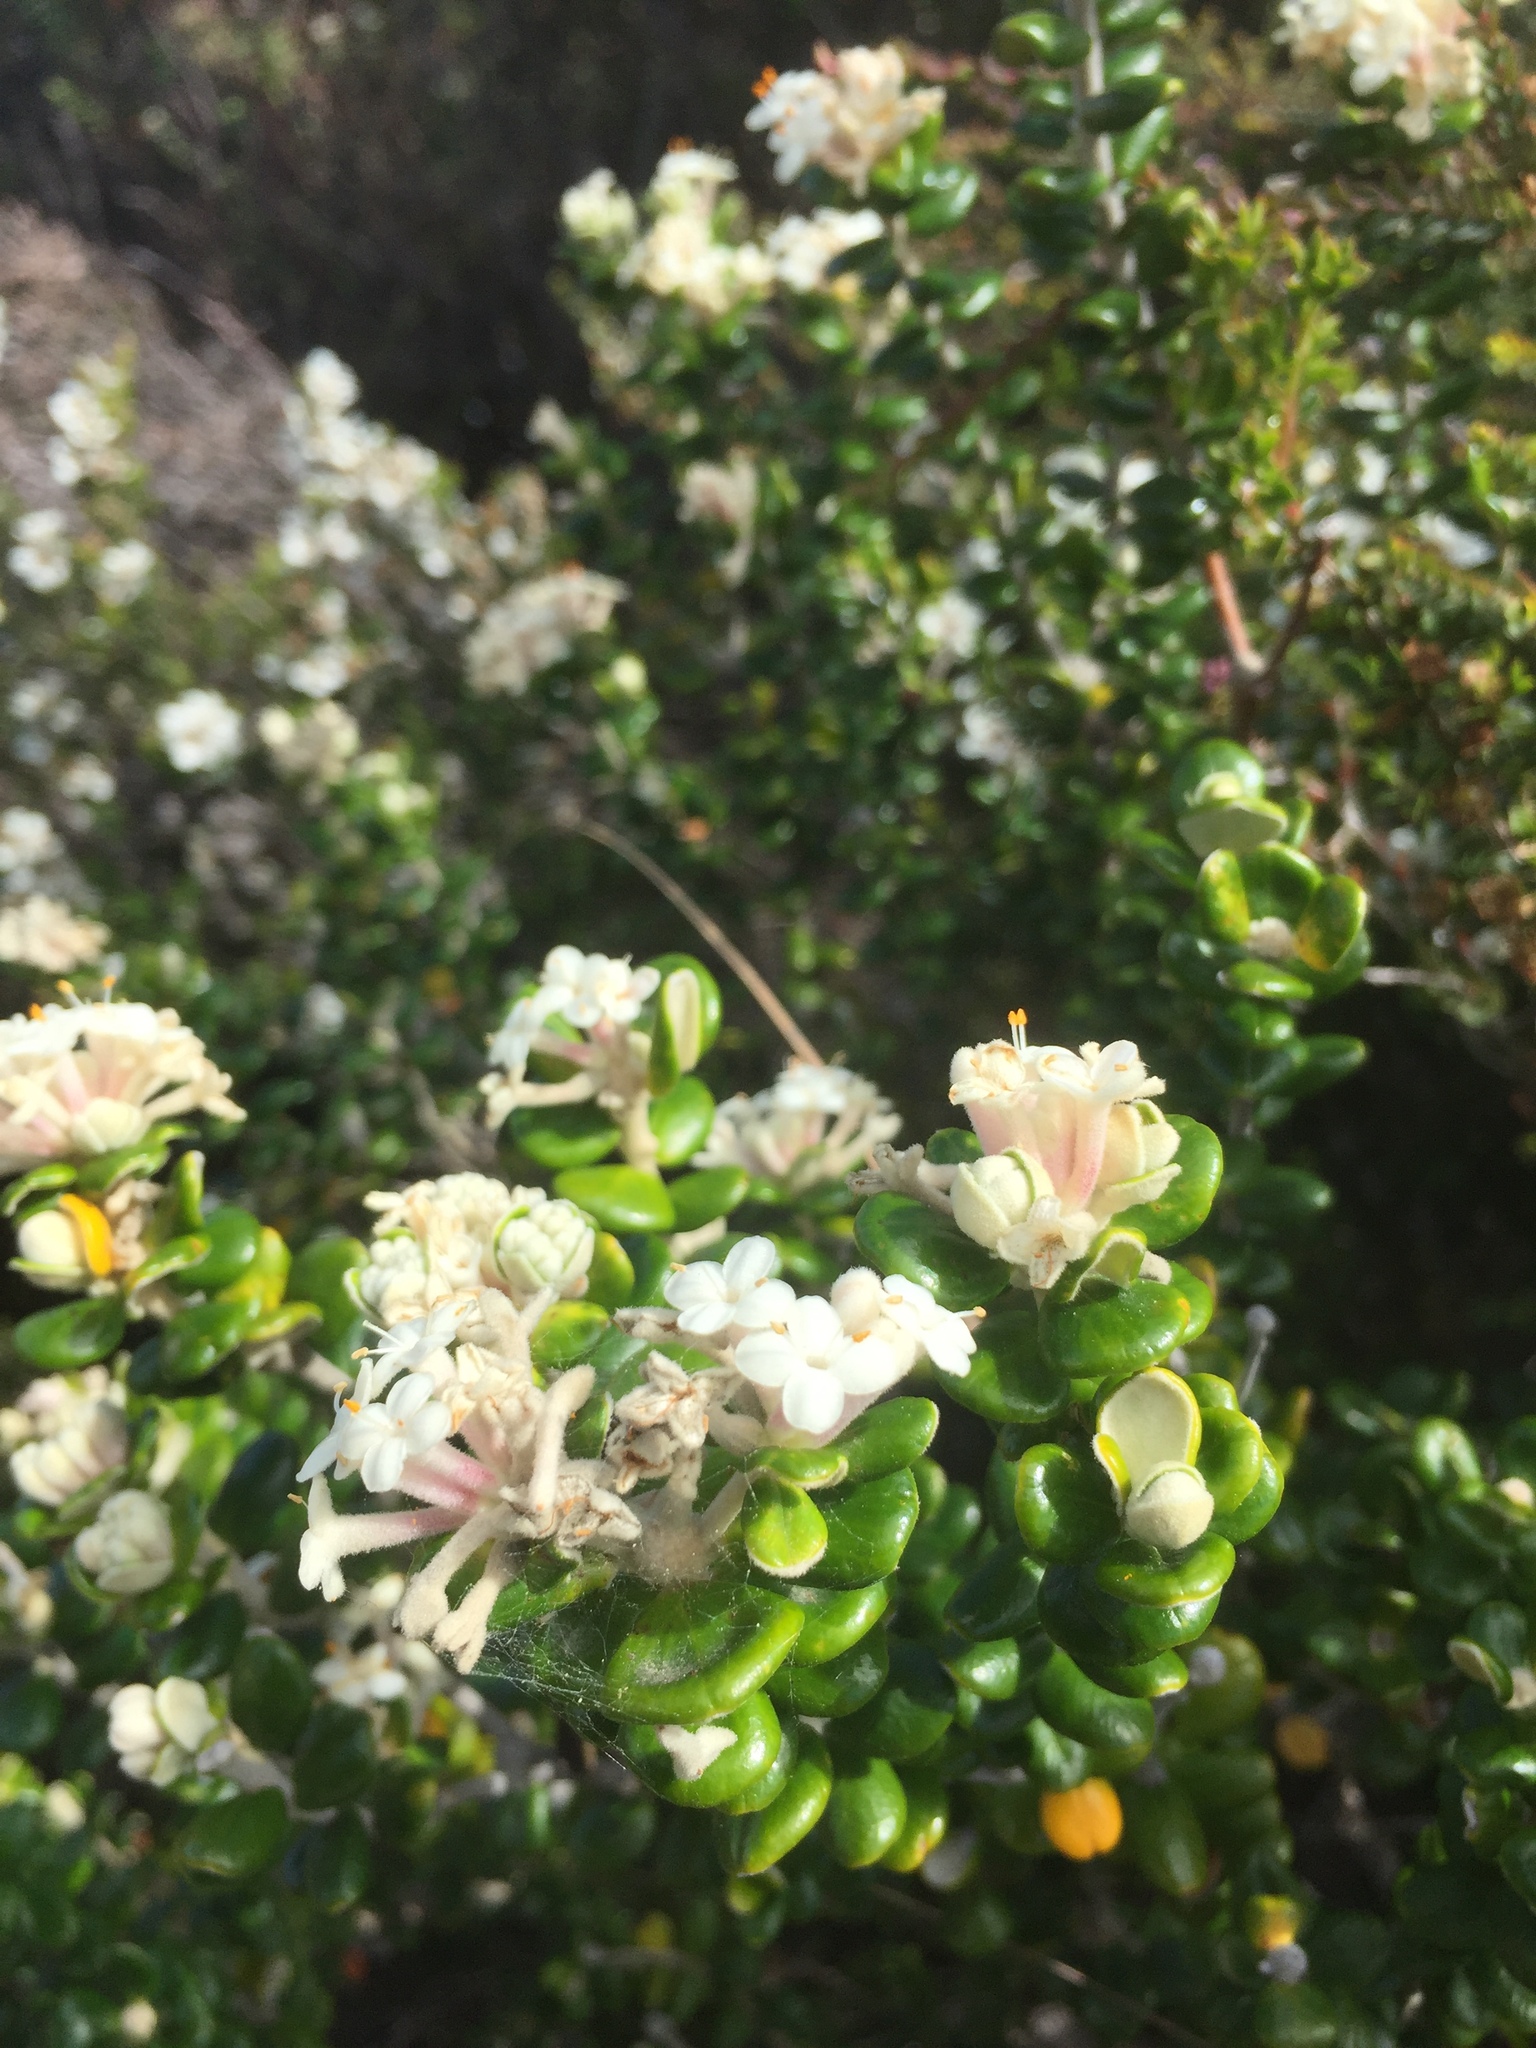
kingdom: Plantae
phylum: Tracheophyta
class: Magnoliopsida
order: Malvales
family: Thymelaeaceae
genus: Pimelea
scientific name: Pimelea nivea
